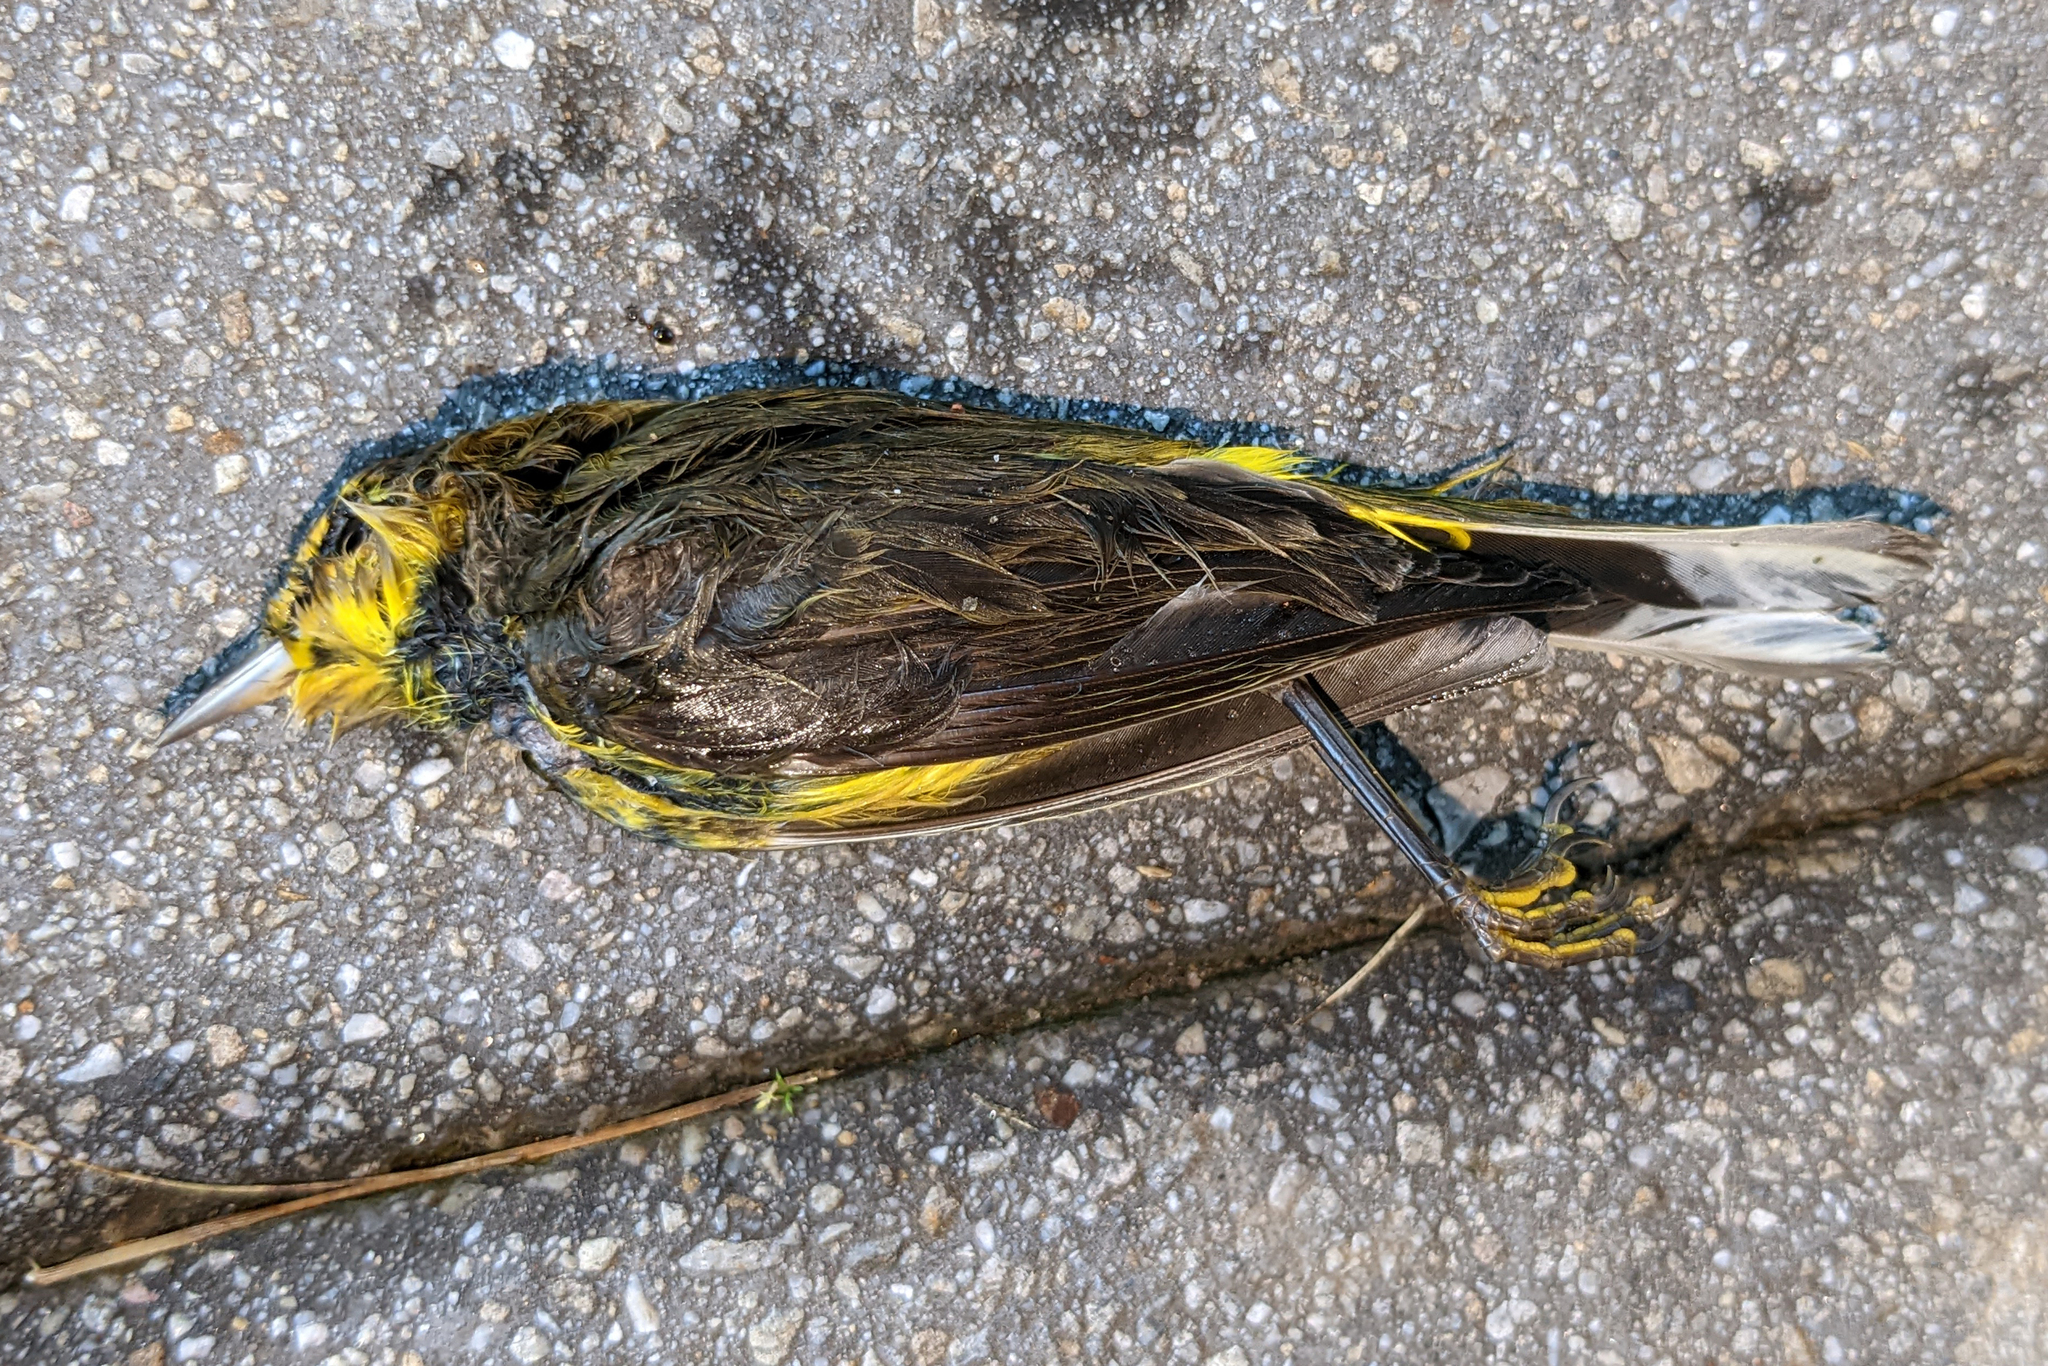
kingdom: Animalia
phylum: Chordata
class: Aves
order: Passeriformes
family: Parulidae
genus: Setophaga
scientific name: Setophaga palmarum
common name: Palm warbler
